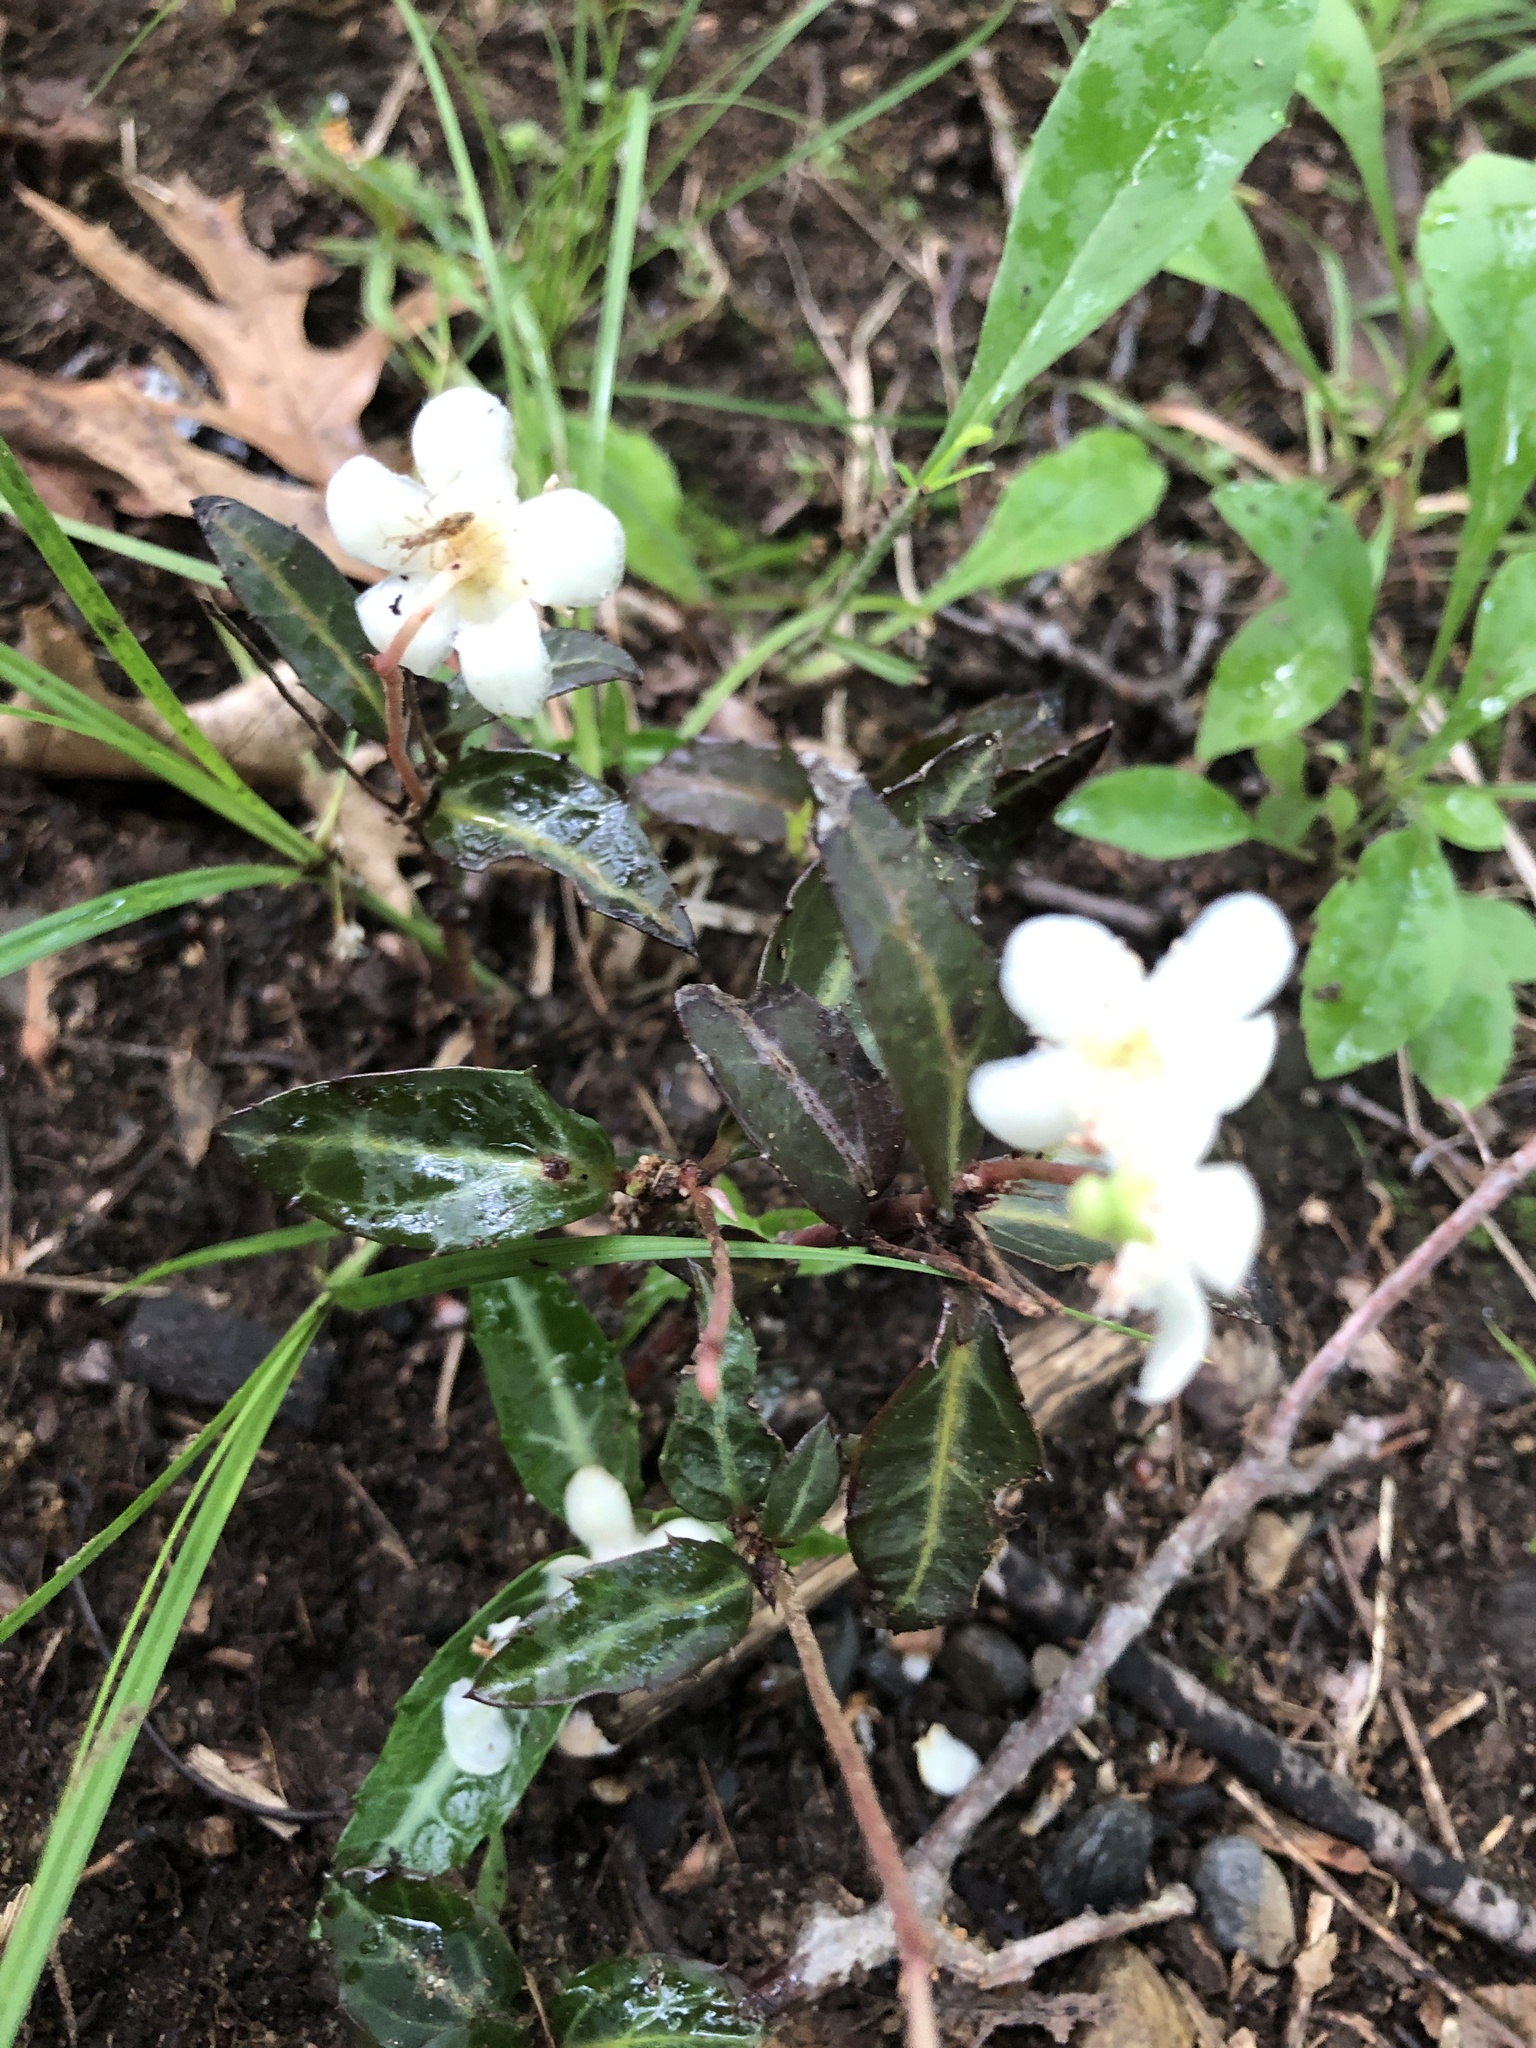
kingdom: Plantae
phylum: Tracheophyta
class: Magnoliopsida
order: Ericales
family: Ericaceae
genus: Chimaphila
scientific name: Chimaphila maculata
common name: Spotted pipsissewa
